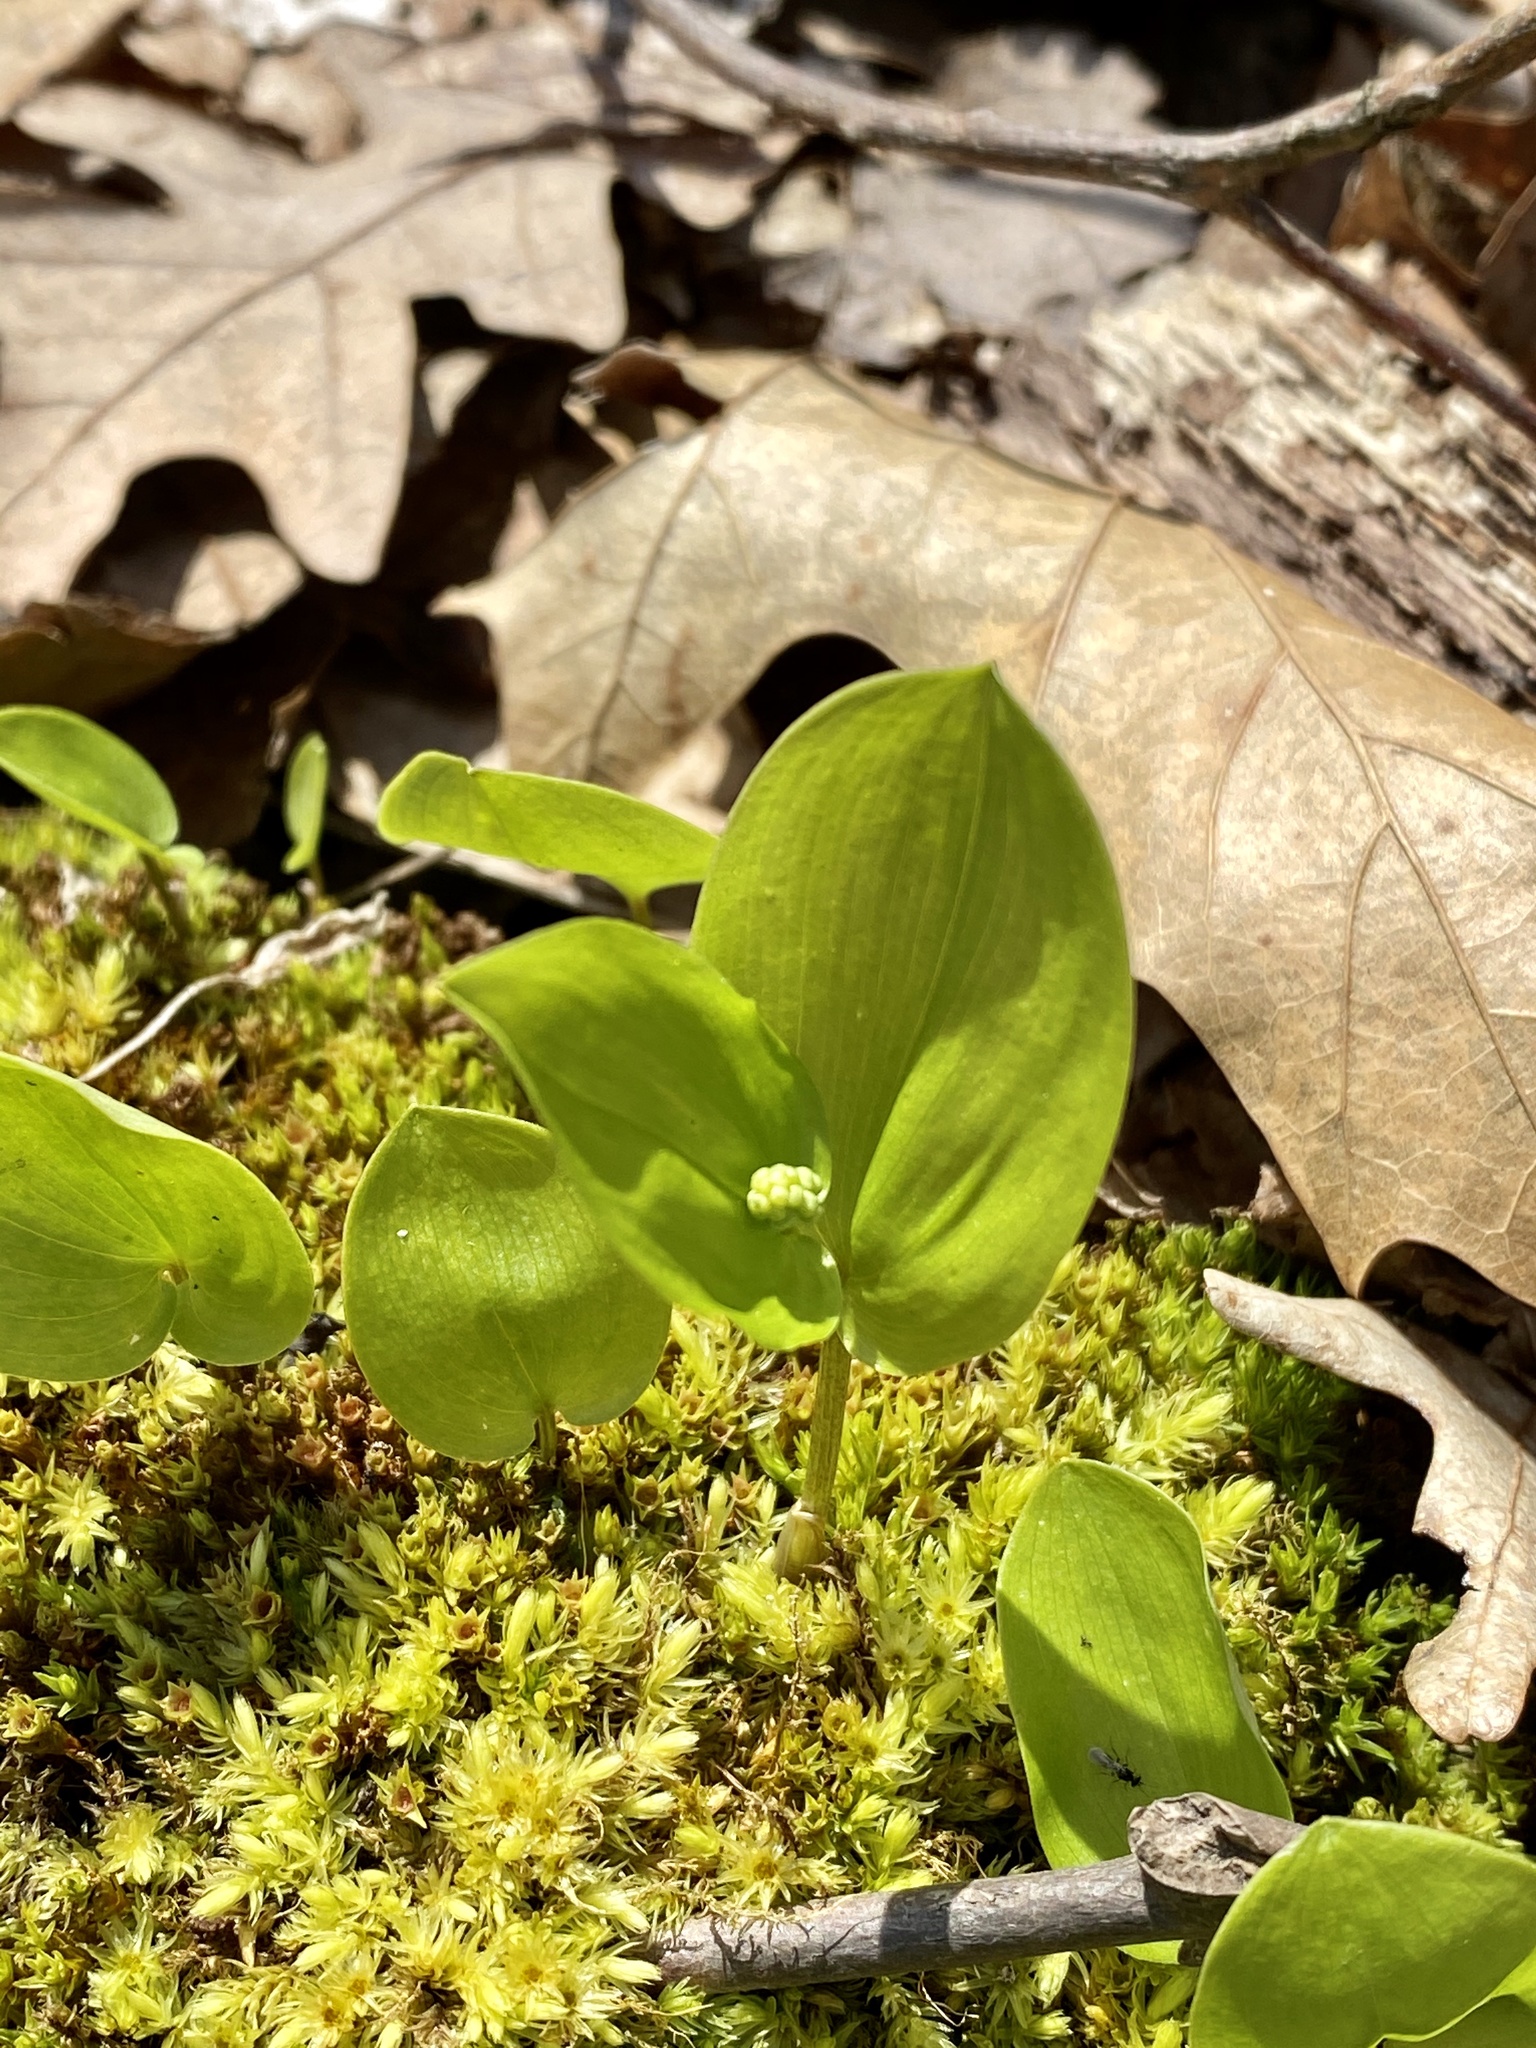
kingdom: Plantae
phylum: Tracheophyta
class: Liliopsida
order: Asparagales
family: Asparagaceae
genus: Maianthemum
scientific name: Maianthemum canadense
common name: False lily-of-the-valley
